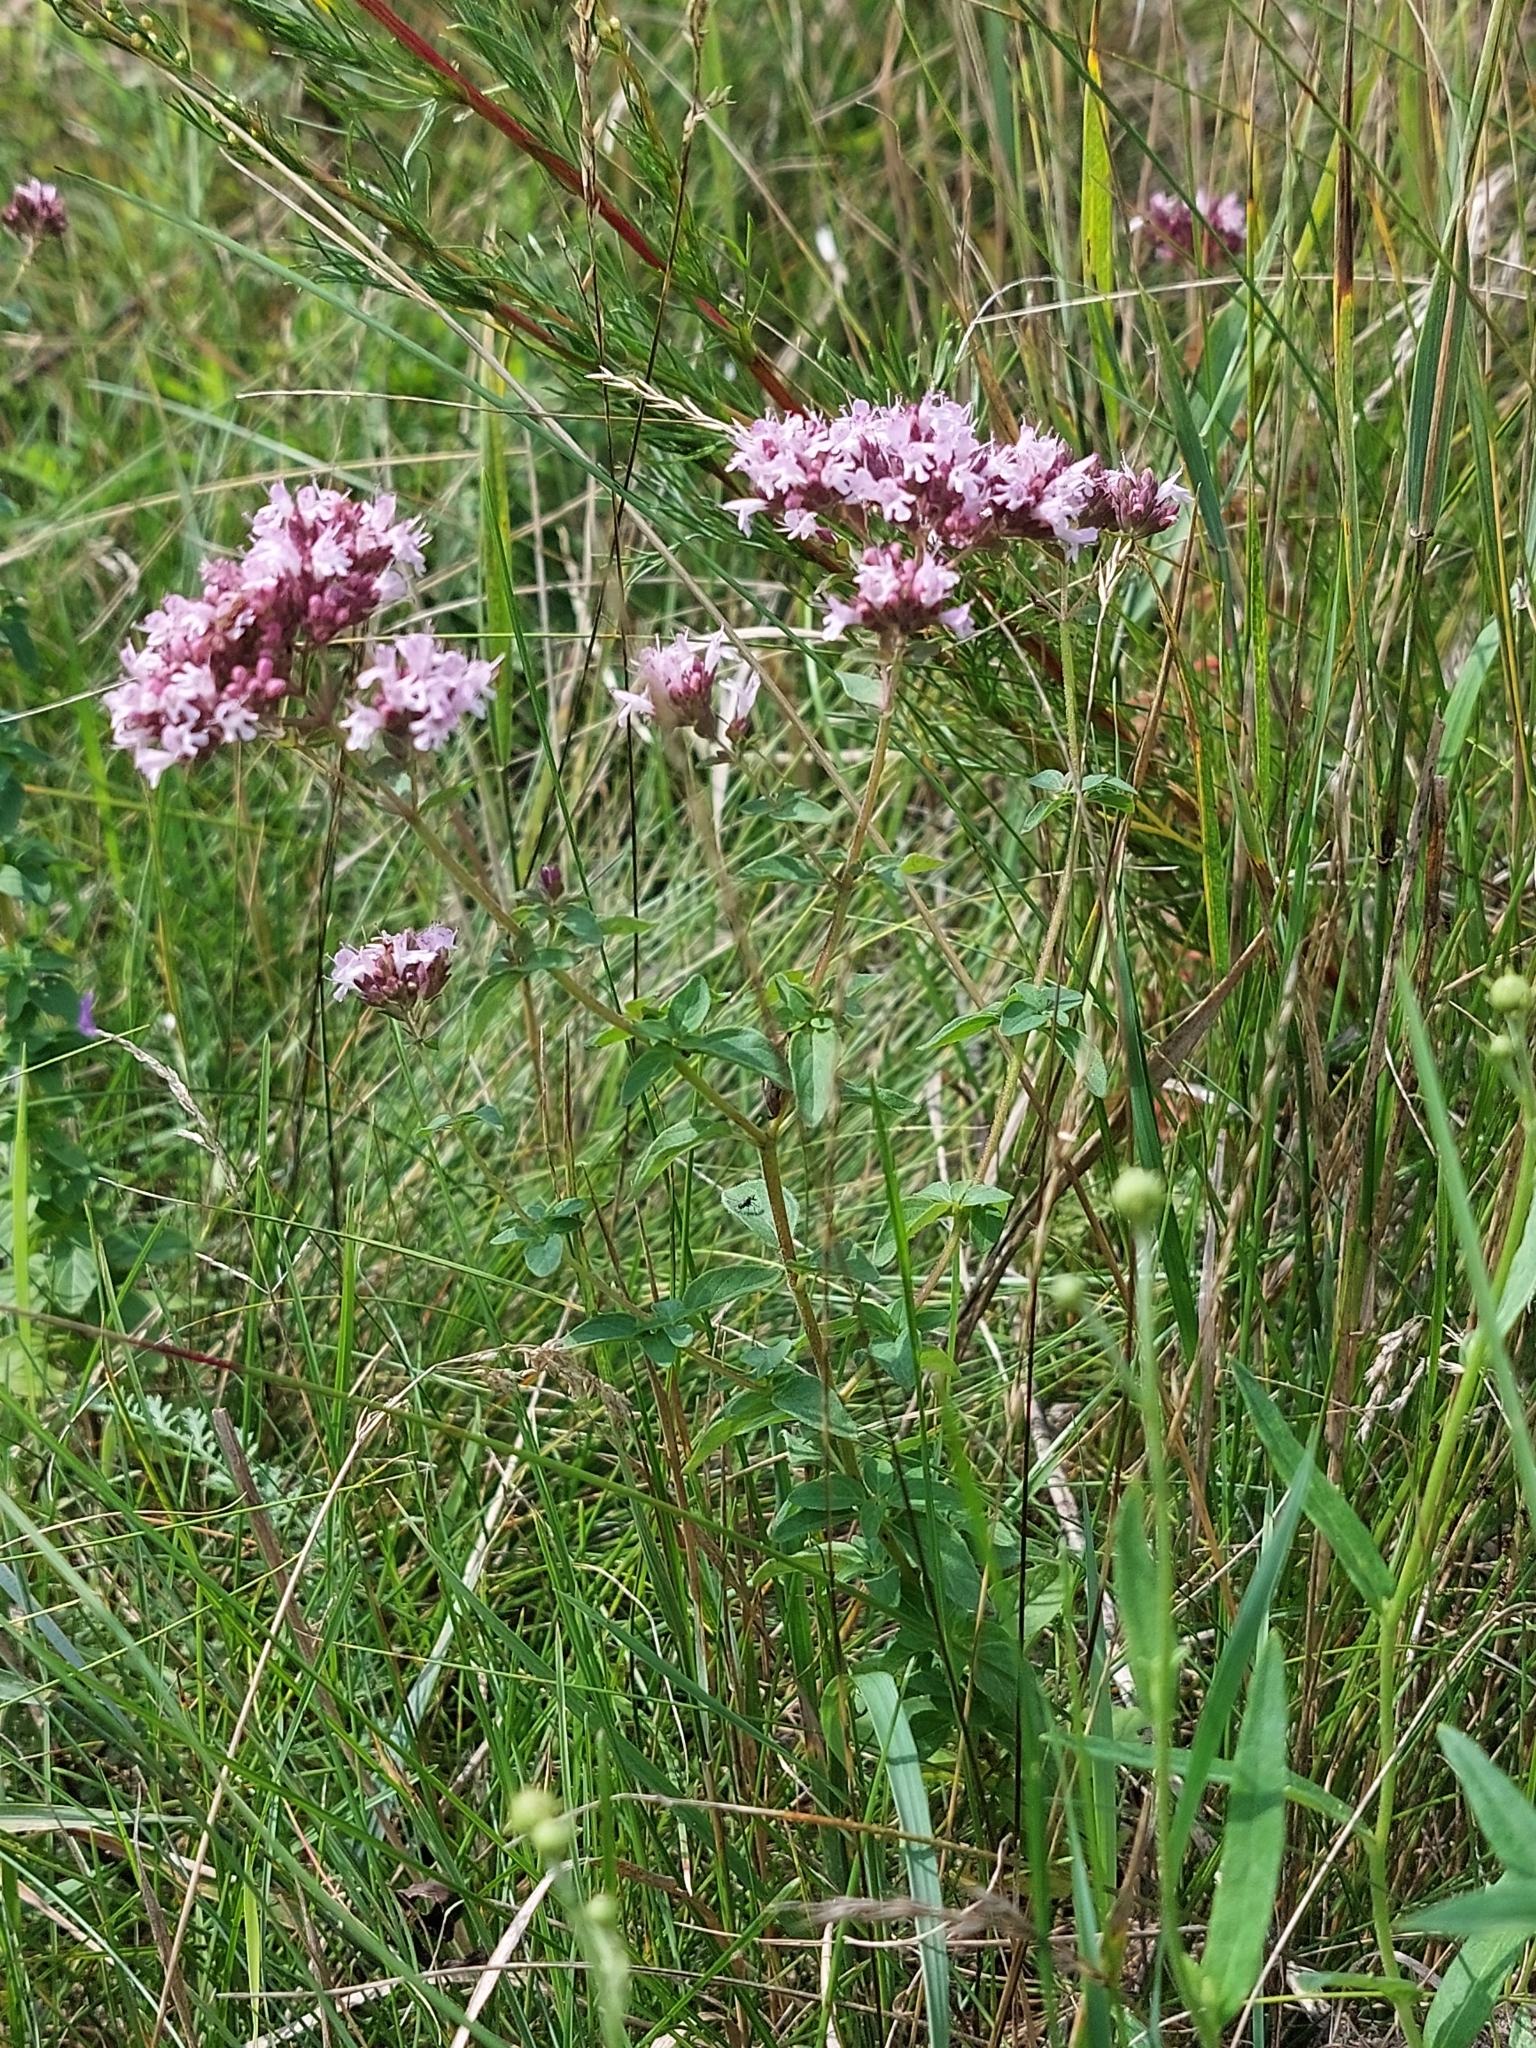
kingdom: Plantae
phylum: Tracheophyta
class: Magnoliopsida
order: Lamiales
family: Lamiaceae
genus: Origanum
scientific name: Origanum vulgare
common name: Wild marjoram
